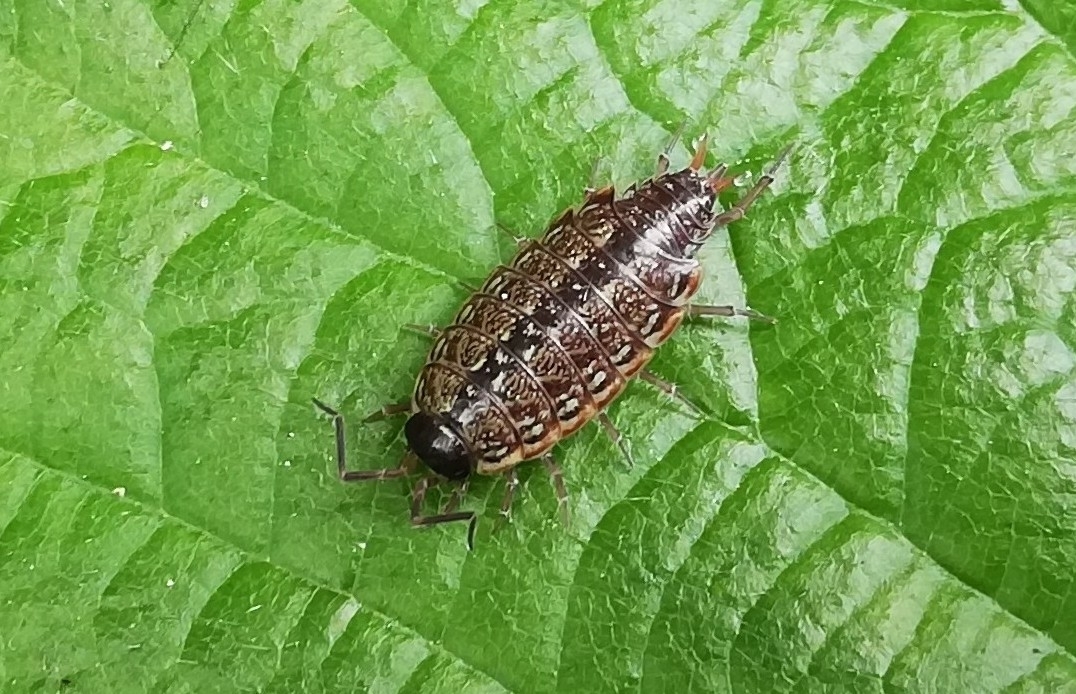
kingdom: Animalia
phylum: Arthropoda
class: Malacostraca
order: Isopoda
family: Philosciidae
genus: Philoscia
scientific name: Philoscia muscorum
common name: Common striped woodlouse
